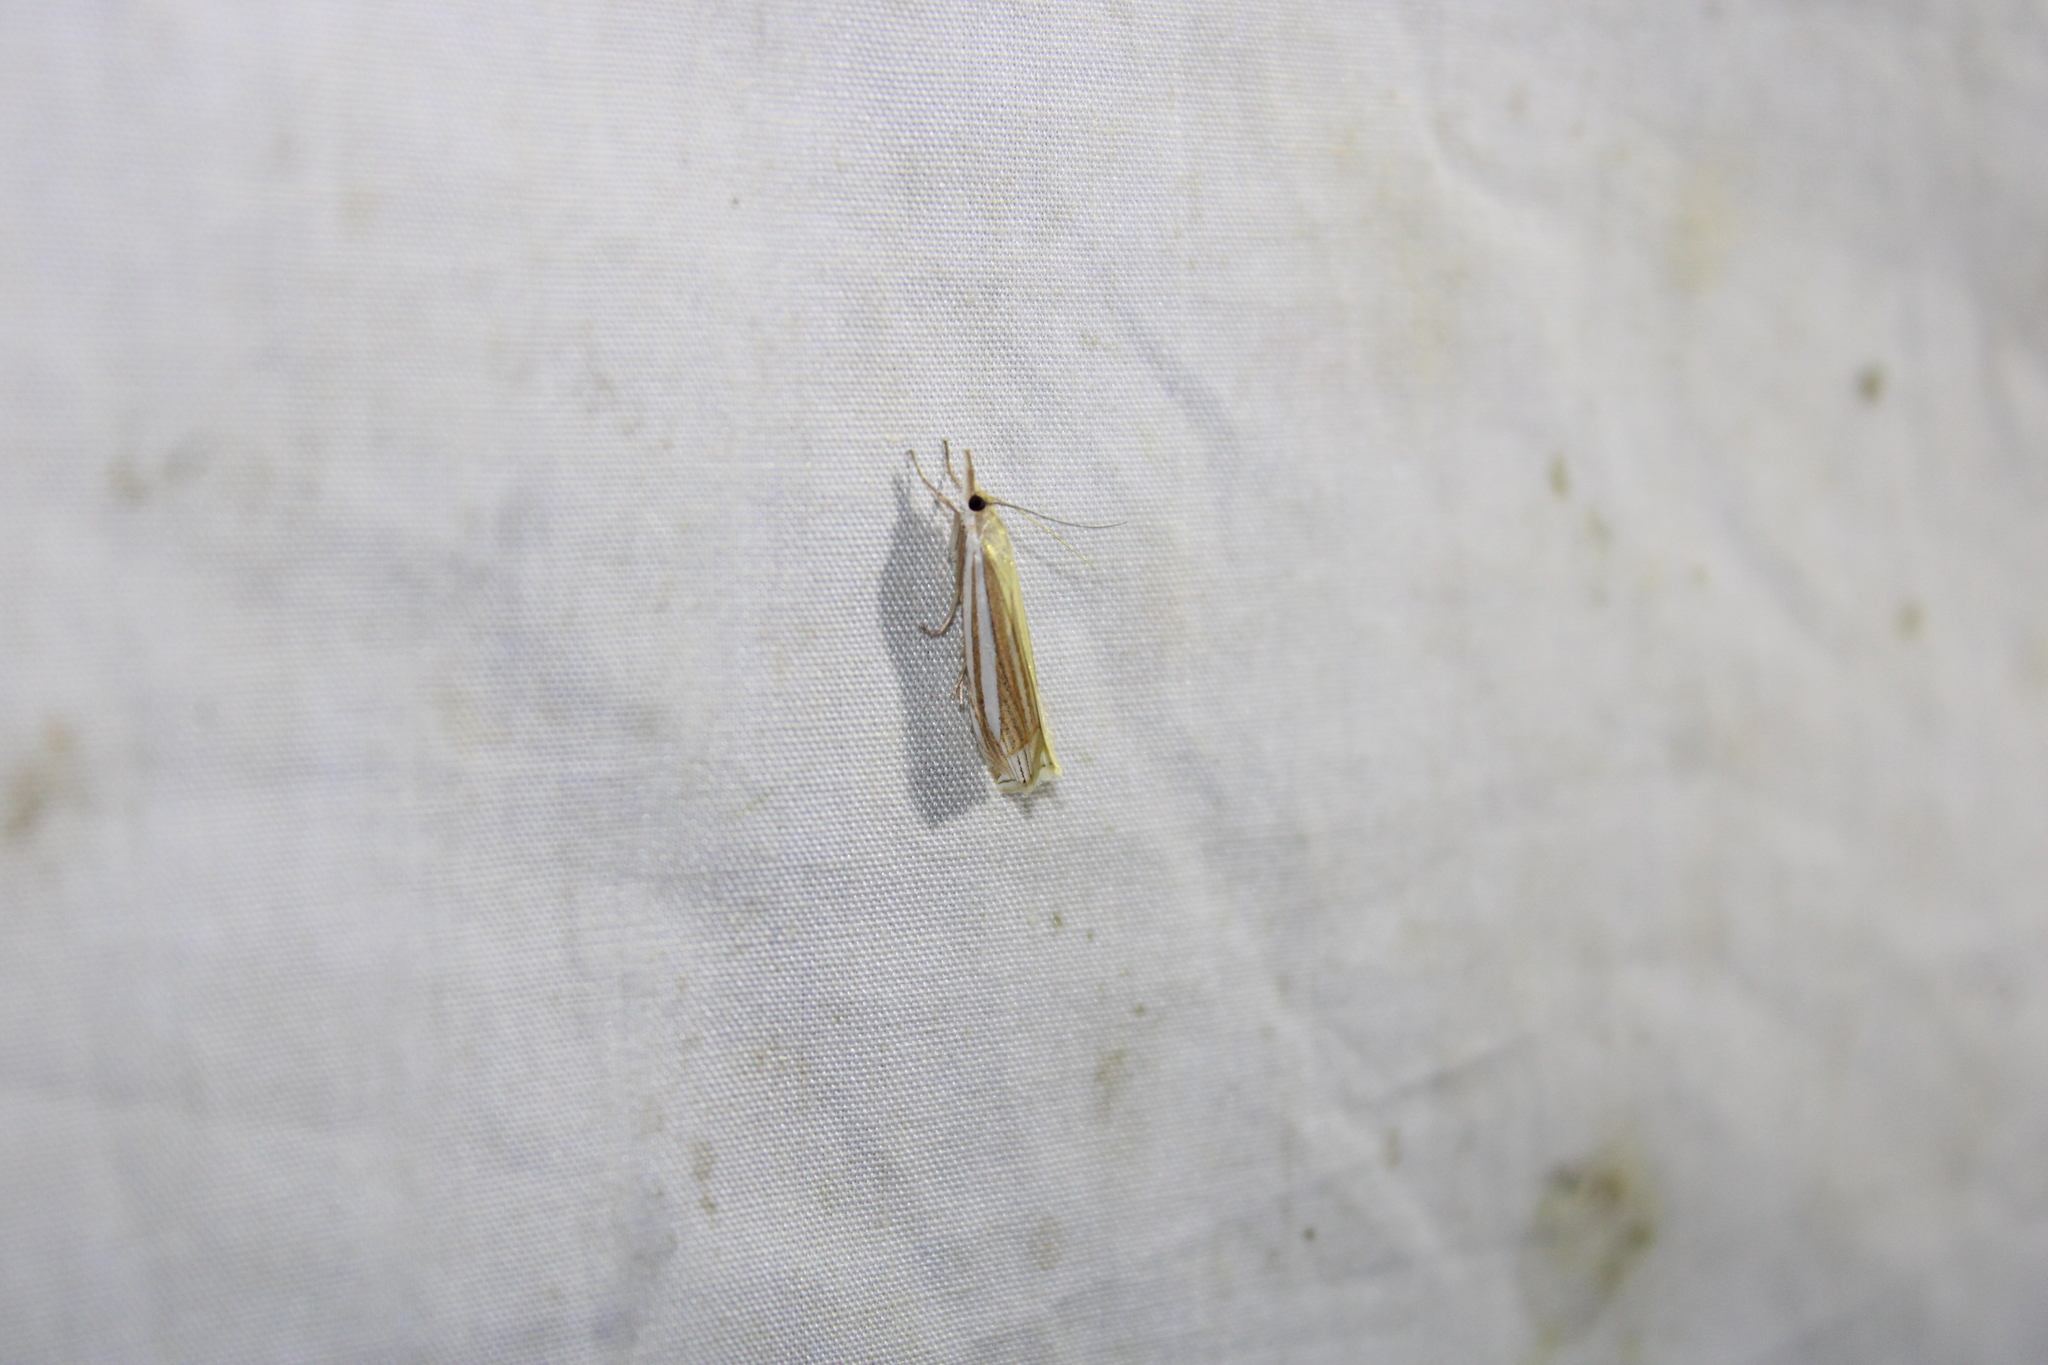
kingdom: Animalia
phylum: Arthropoda
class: Insecta
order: Lepidoptera
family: Crambidae
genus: Crambus
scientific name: Crambus laqueatellus
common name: Eastern grass-veneer
